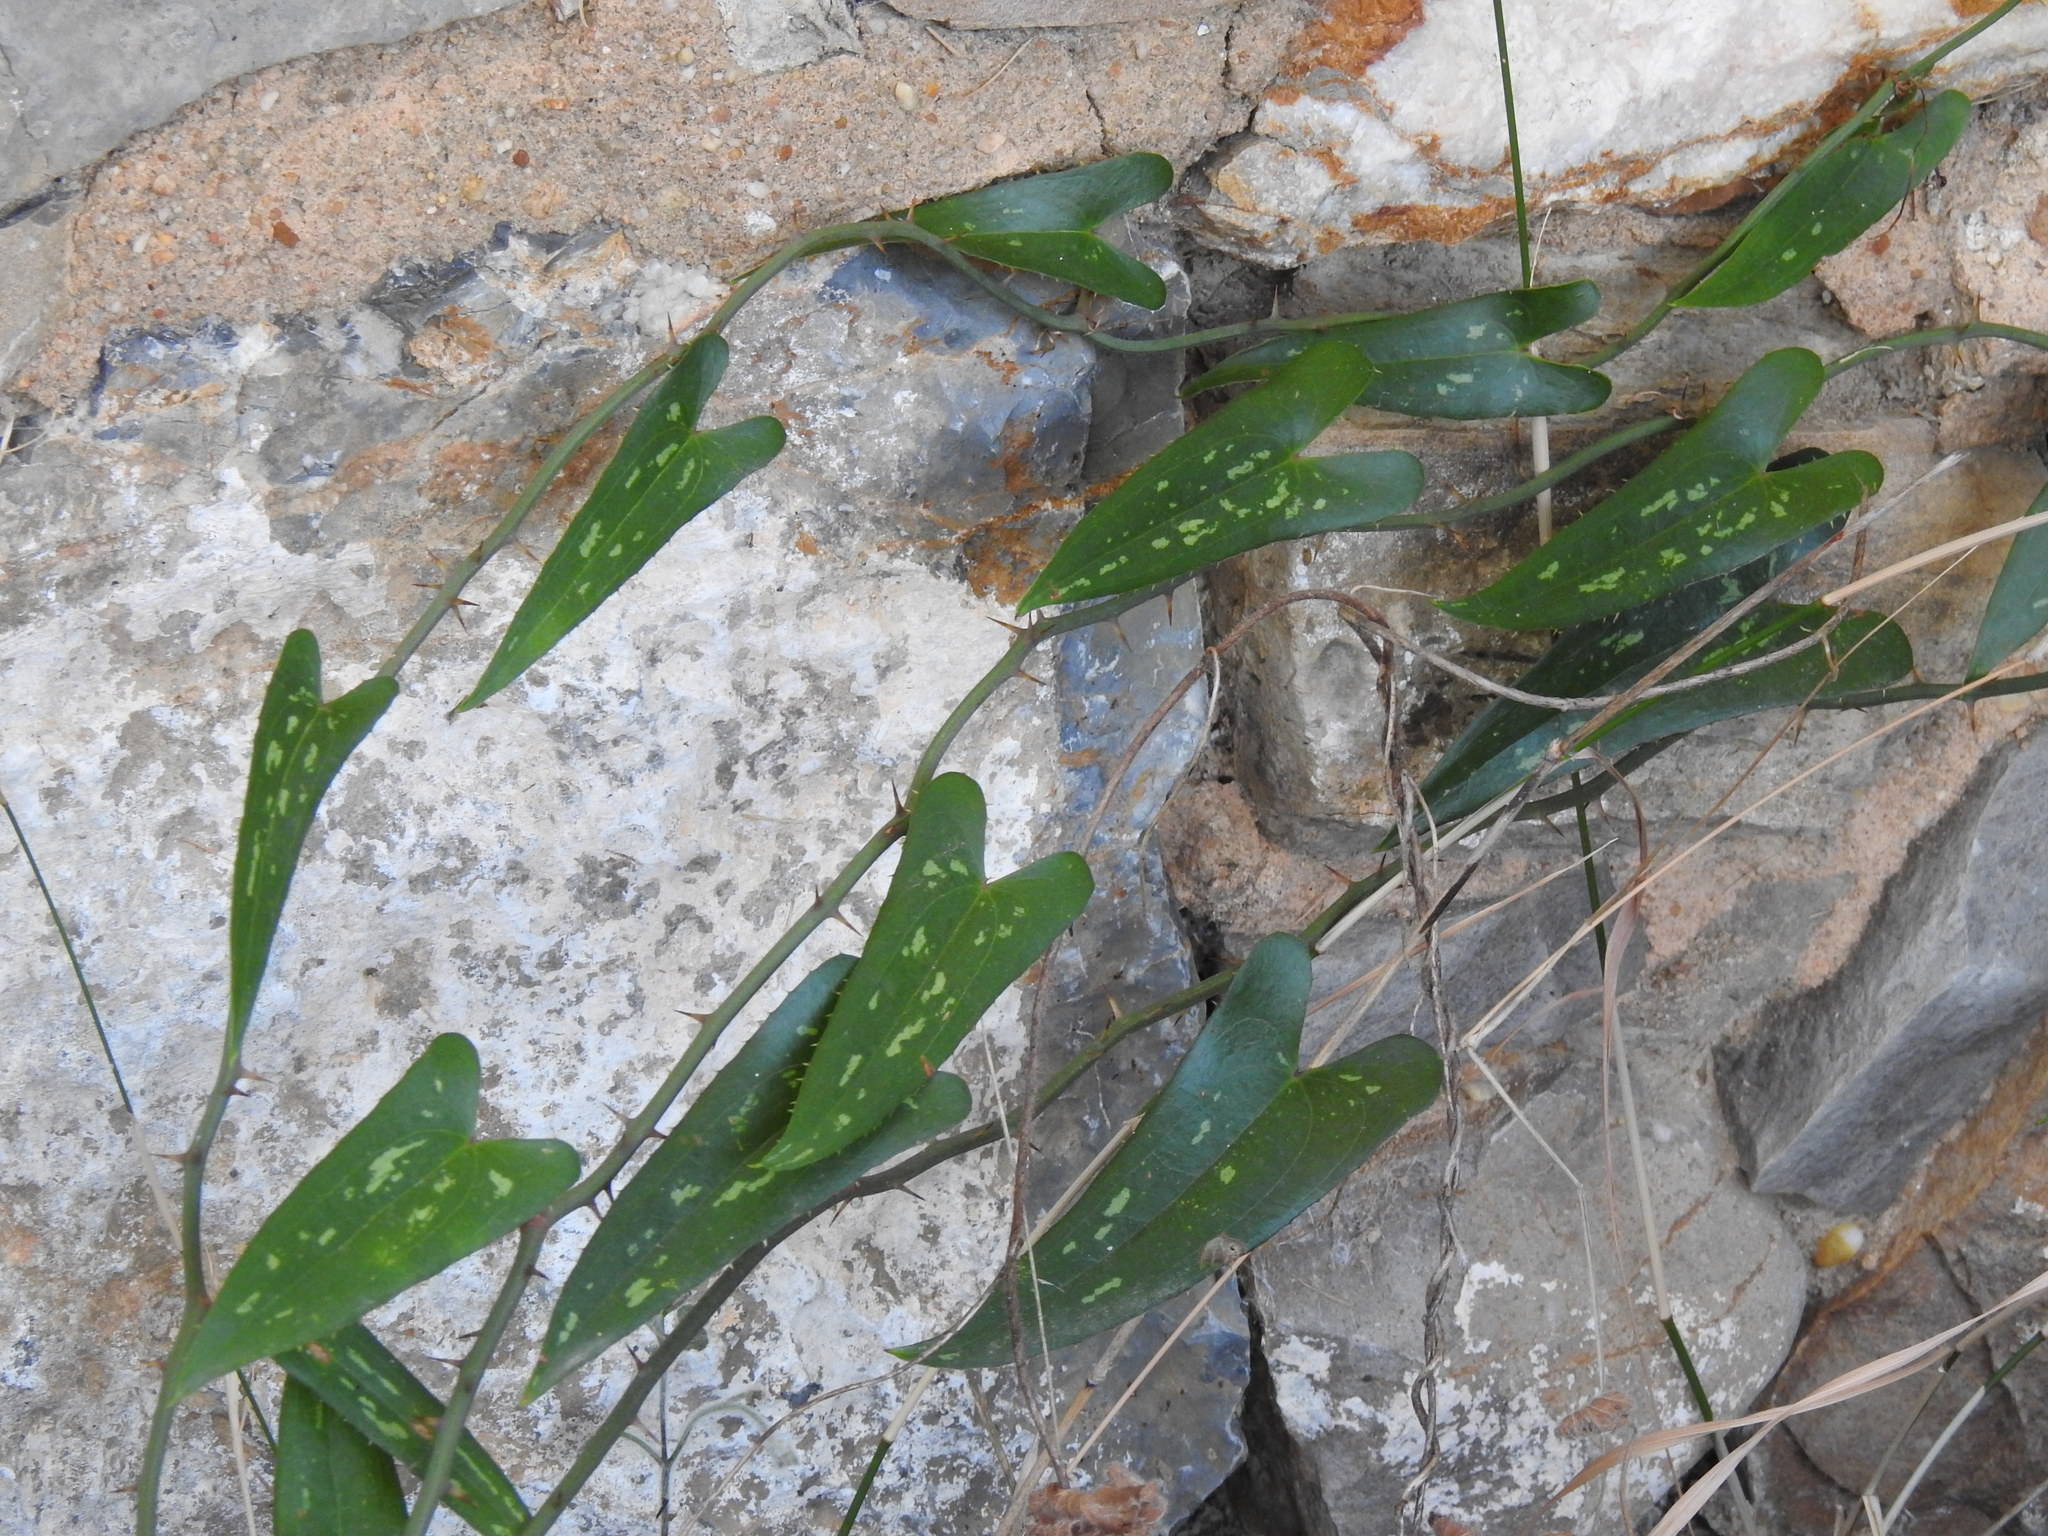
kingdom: Plantae
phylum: Tracheophyta
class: Liliopsida
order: Liliales
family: Smilacaceae
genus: Smilax
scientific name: Smilax aspera
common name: Common smilax
